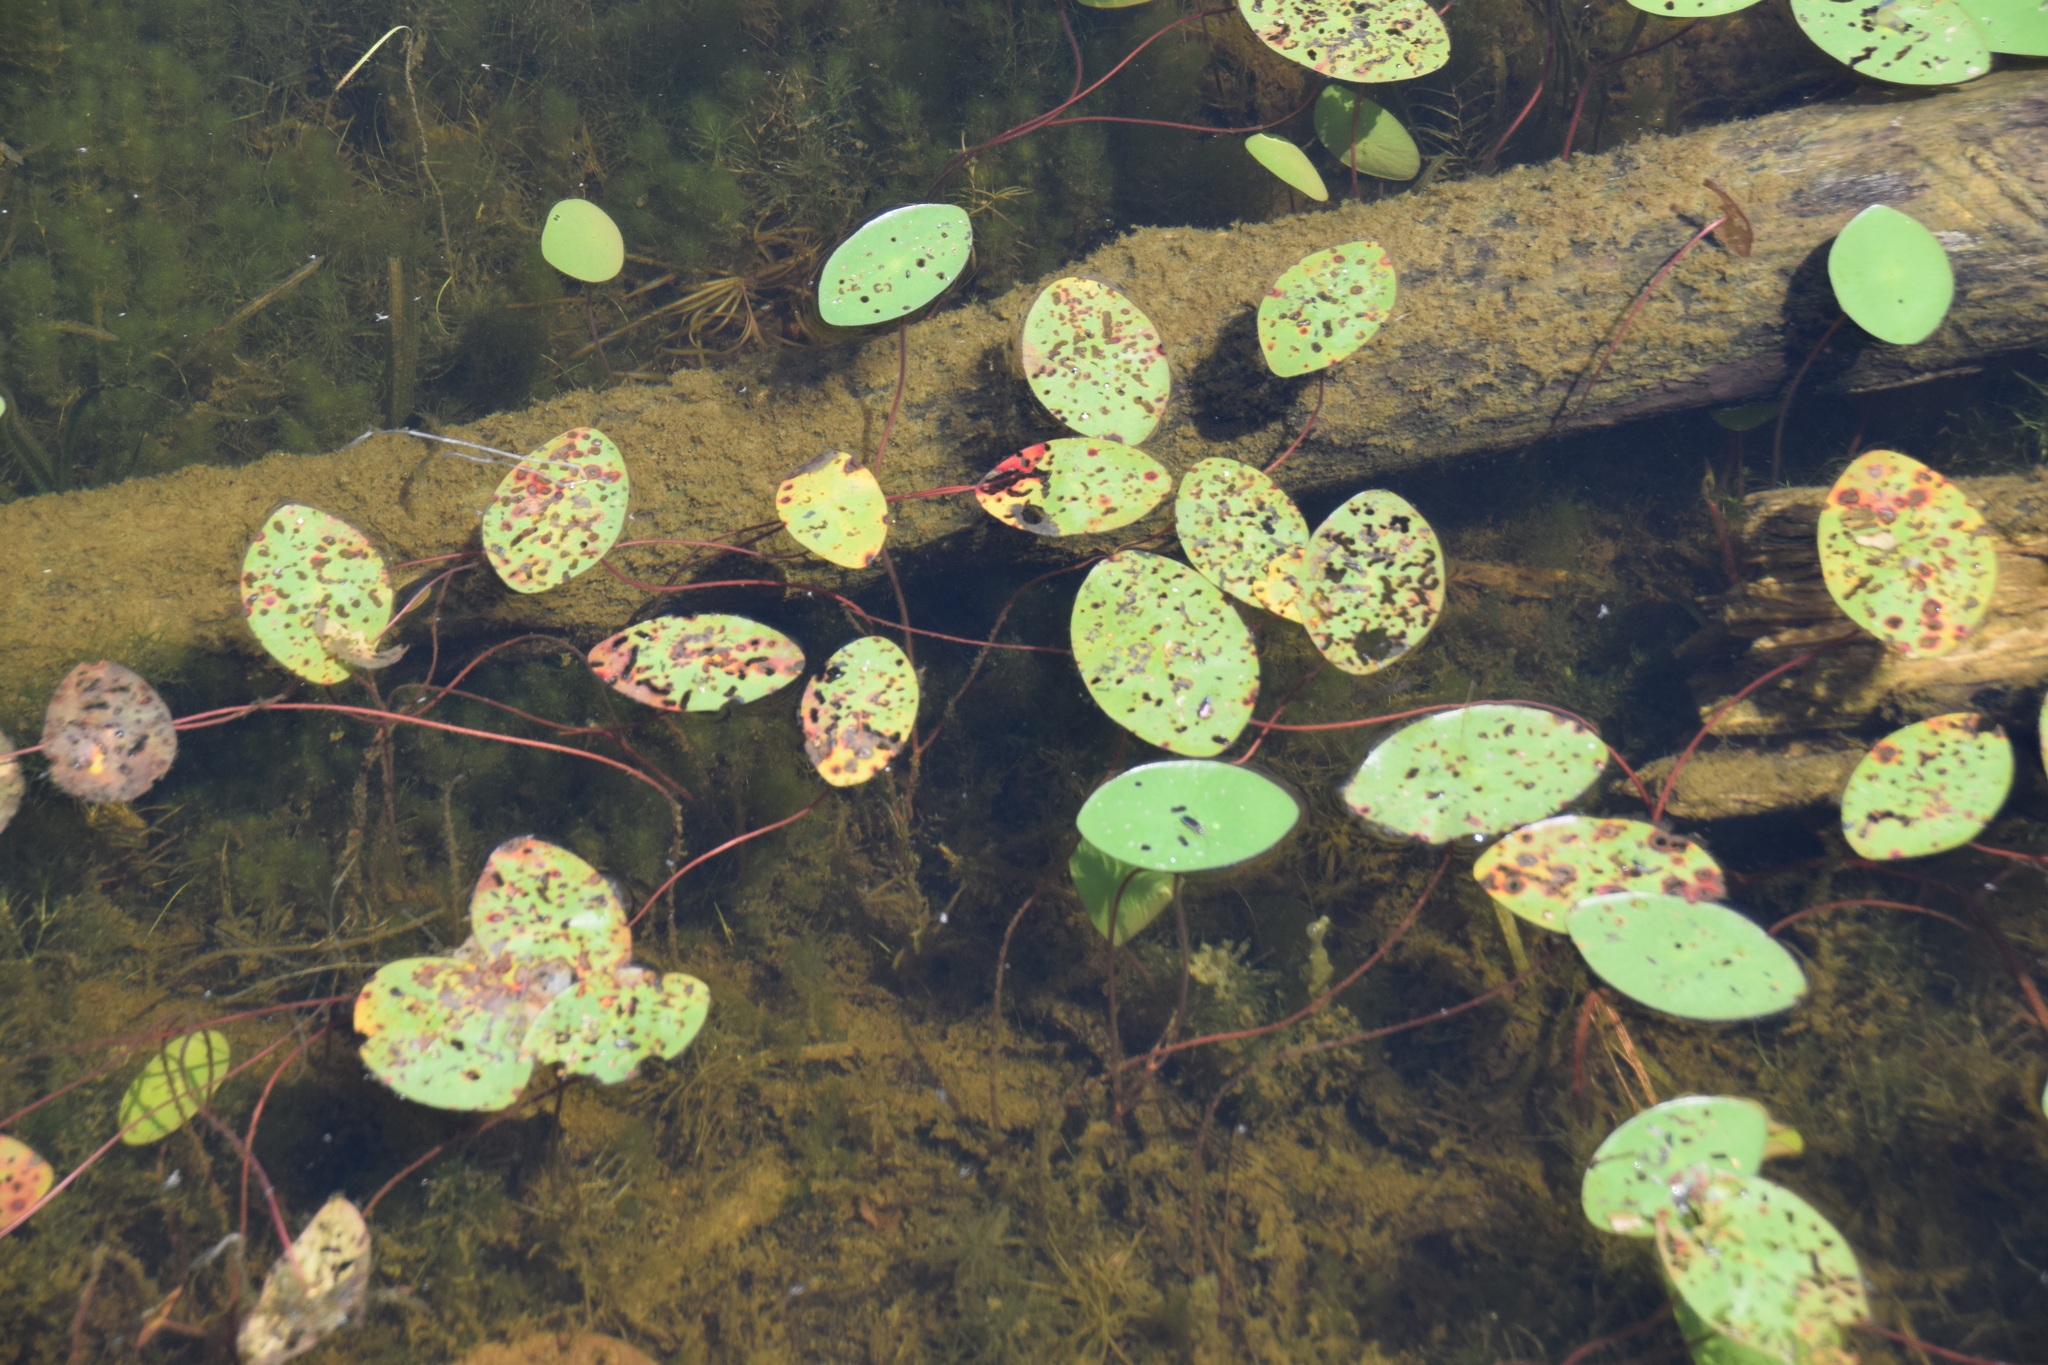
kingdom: Plantae
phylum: Tracheophyta
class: Magnoliopsida
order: Nymphaeales
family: Cabombaceae
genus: Brasenia
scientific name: Brasenia schreberi
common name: Water-shield
